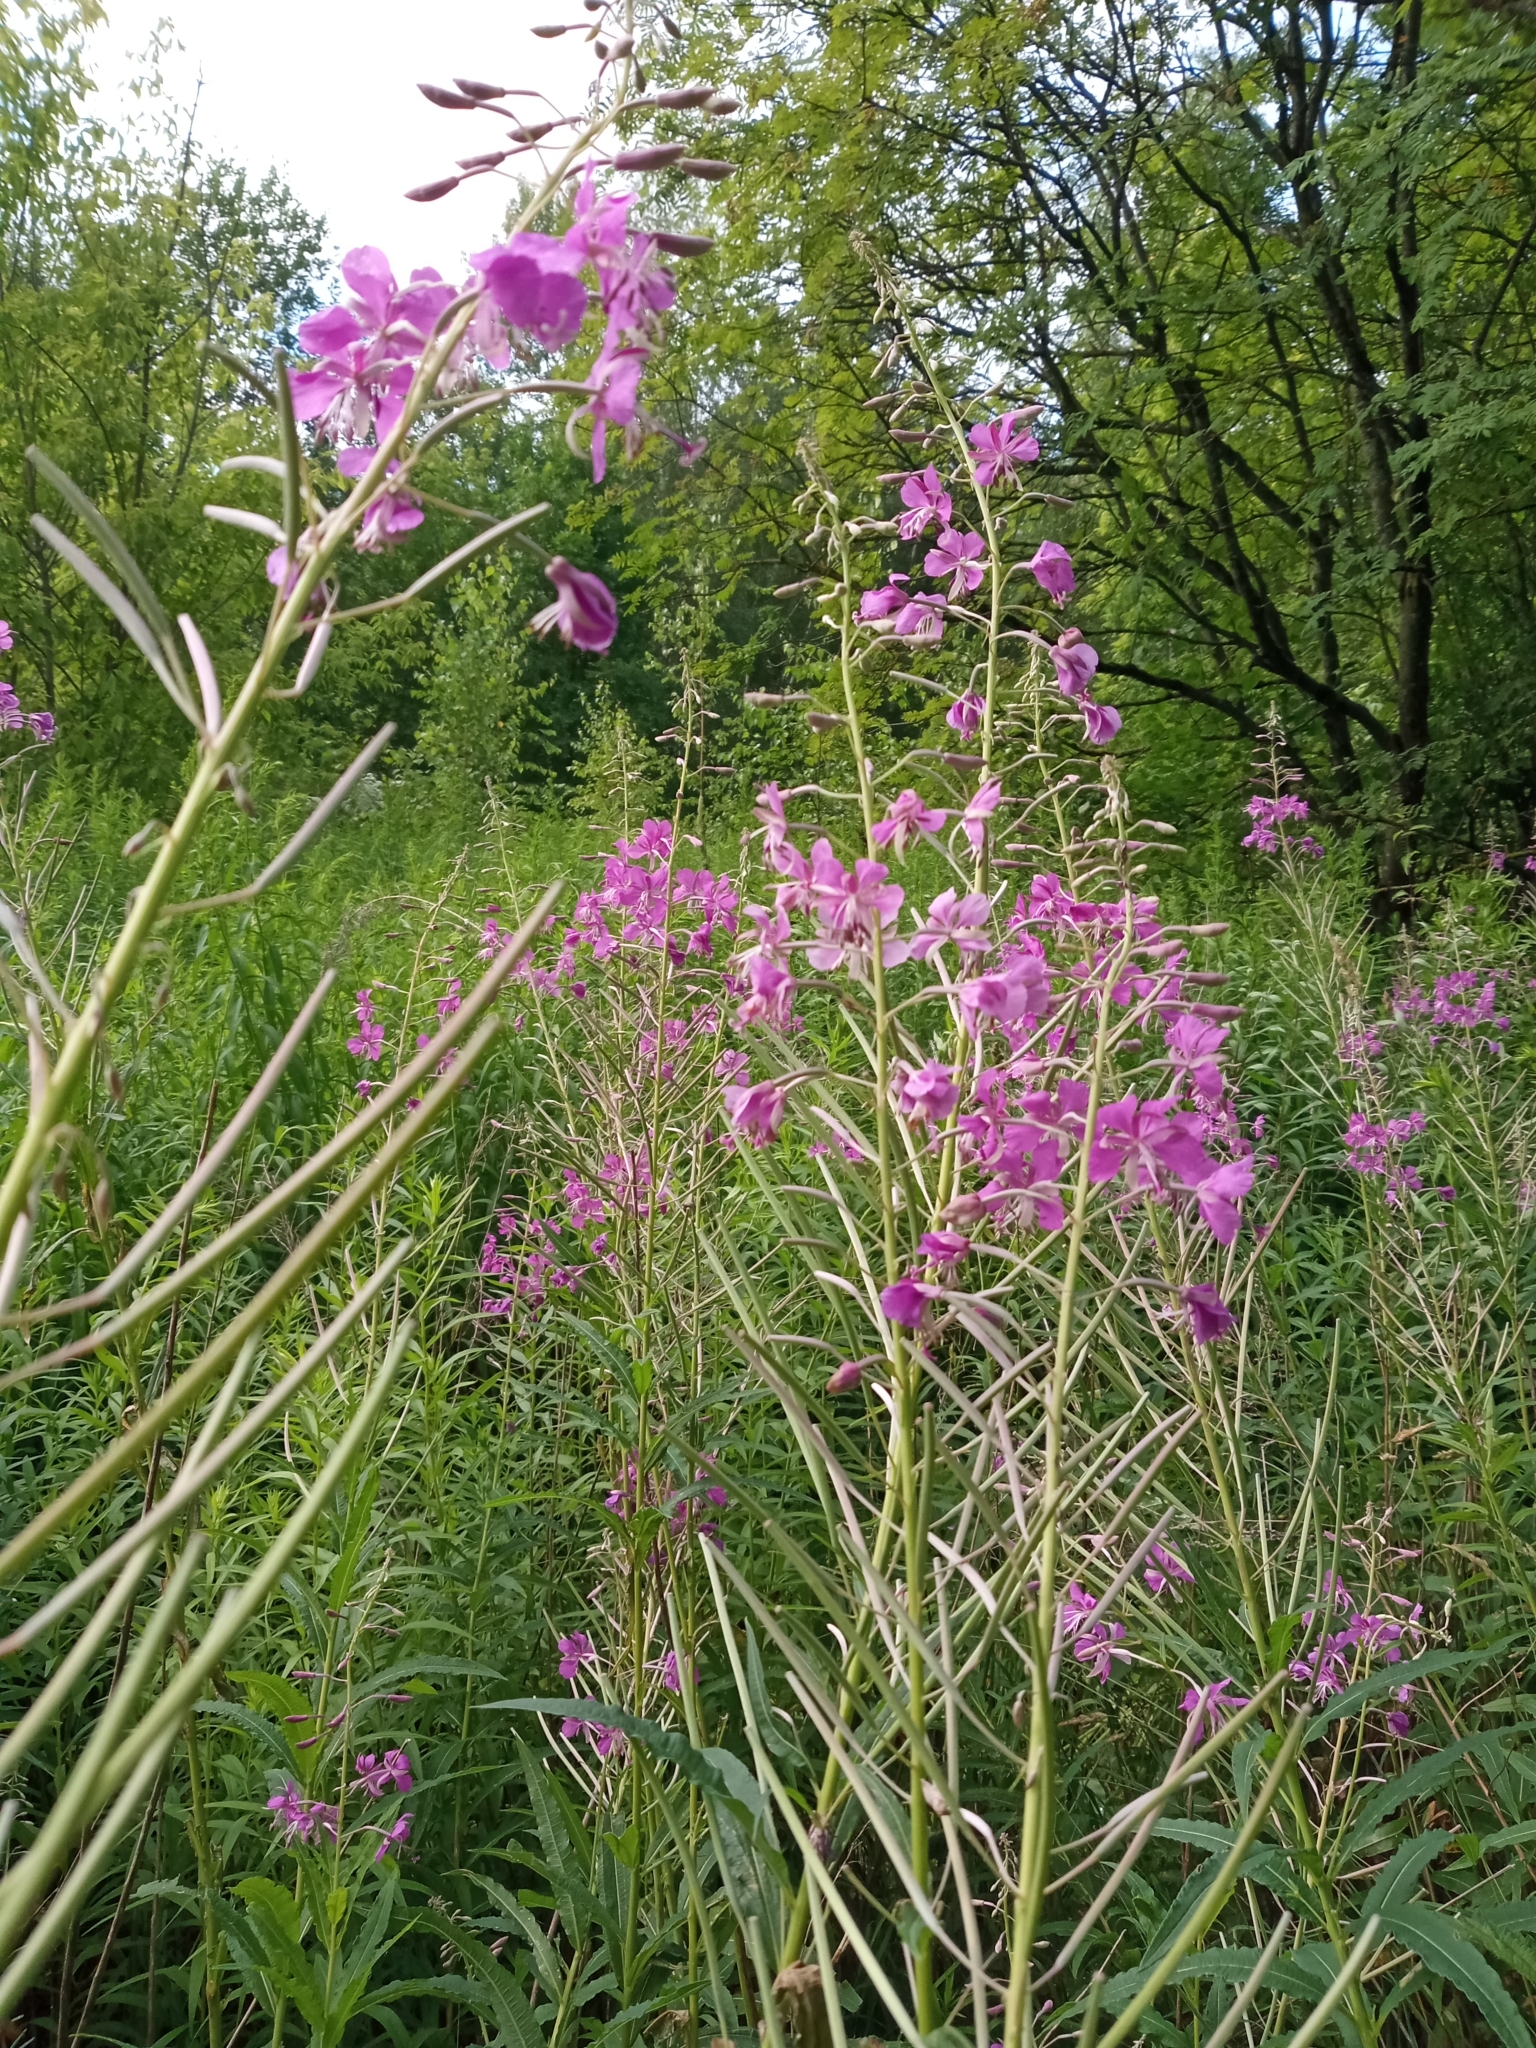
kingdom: Plantae
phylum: Tracheophyta
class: Magnoliopsida
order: Myrtales
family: Onagraceae
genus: Chamaenerion
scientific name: Chamaenerion angustifolium
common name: Fireweed
